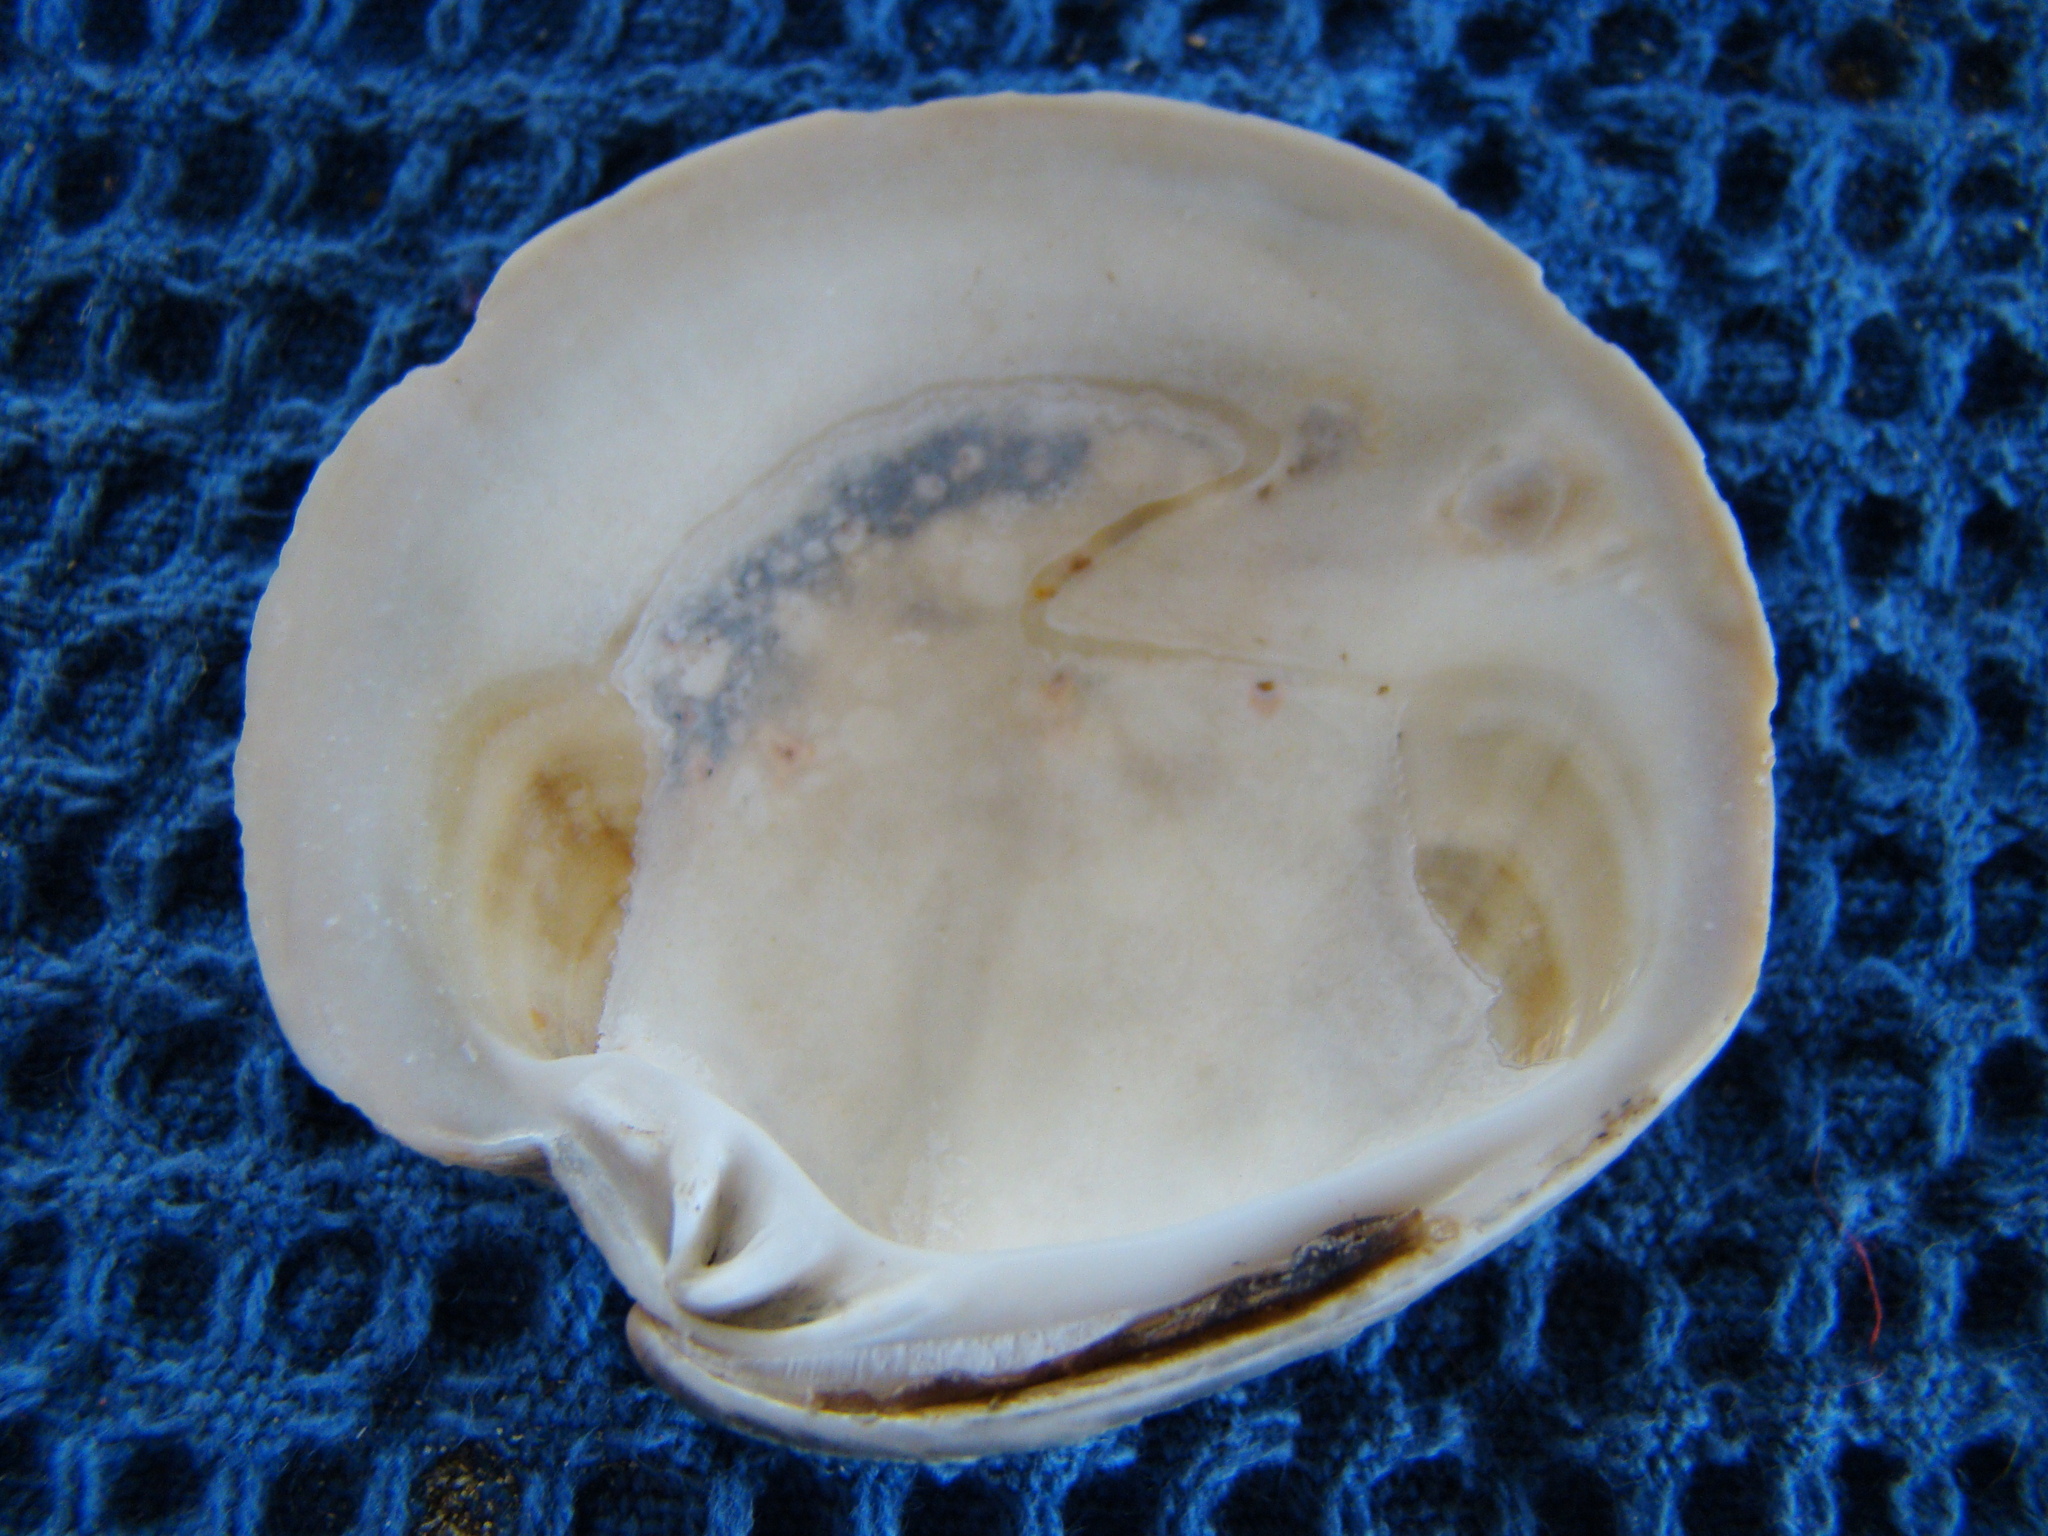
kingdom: Animalia
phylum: Mollusca
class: Bivalvia
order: Venerida
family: Veneridae
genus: Dosinia
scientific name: Dosinia anus
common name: Old-woman dosinia
